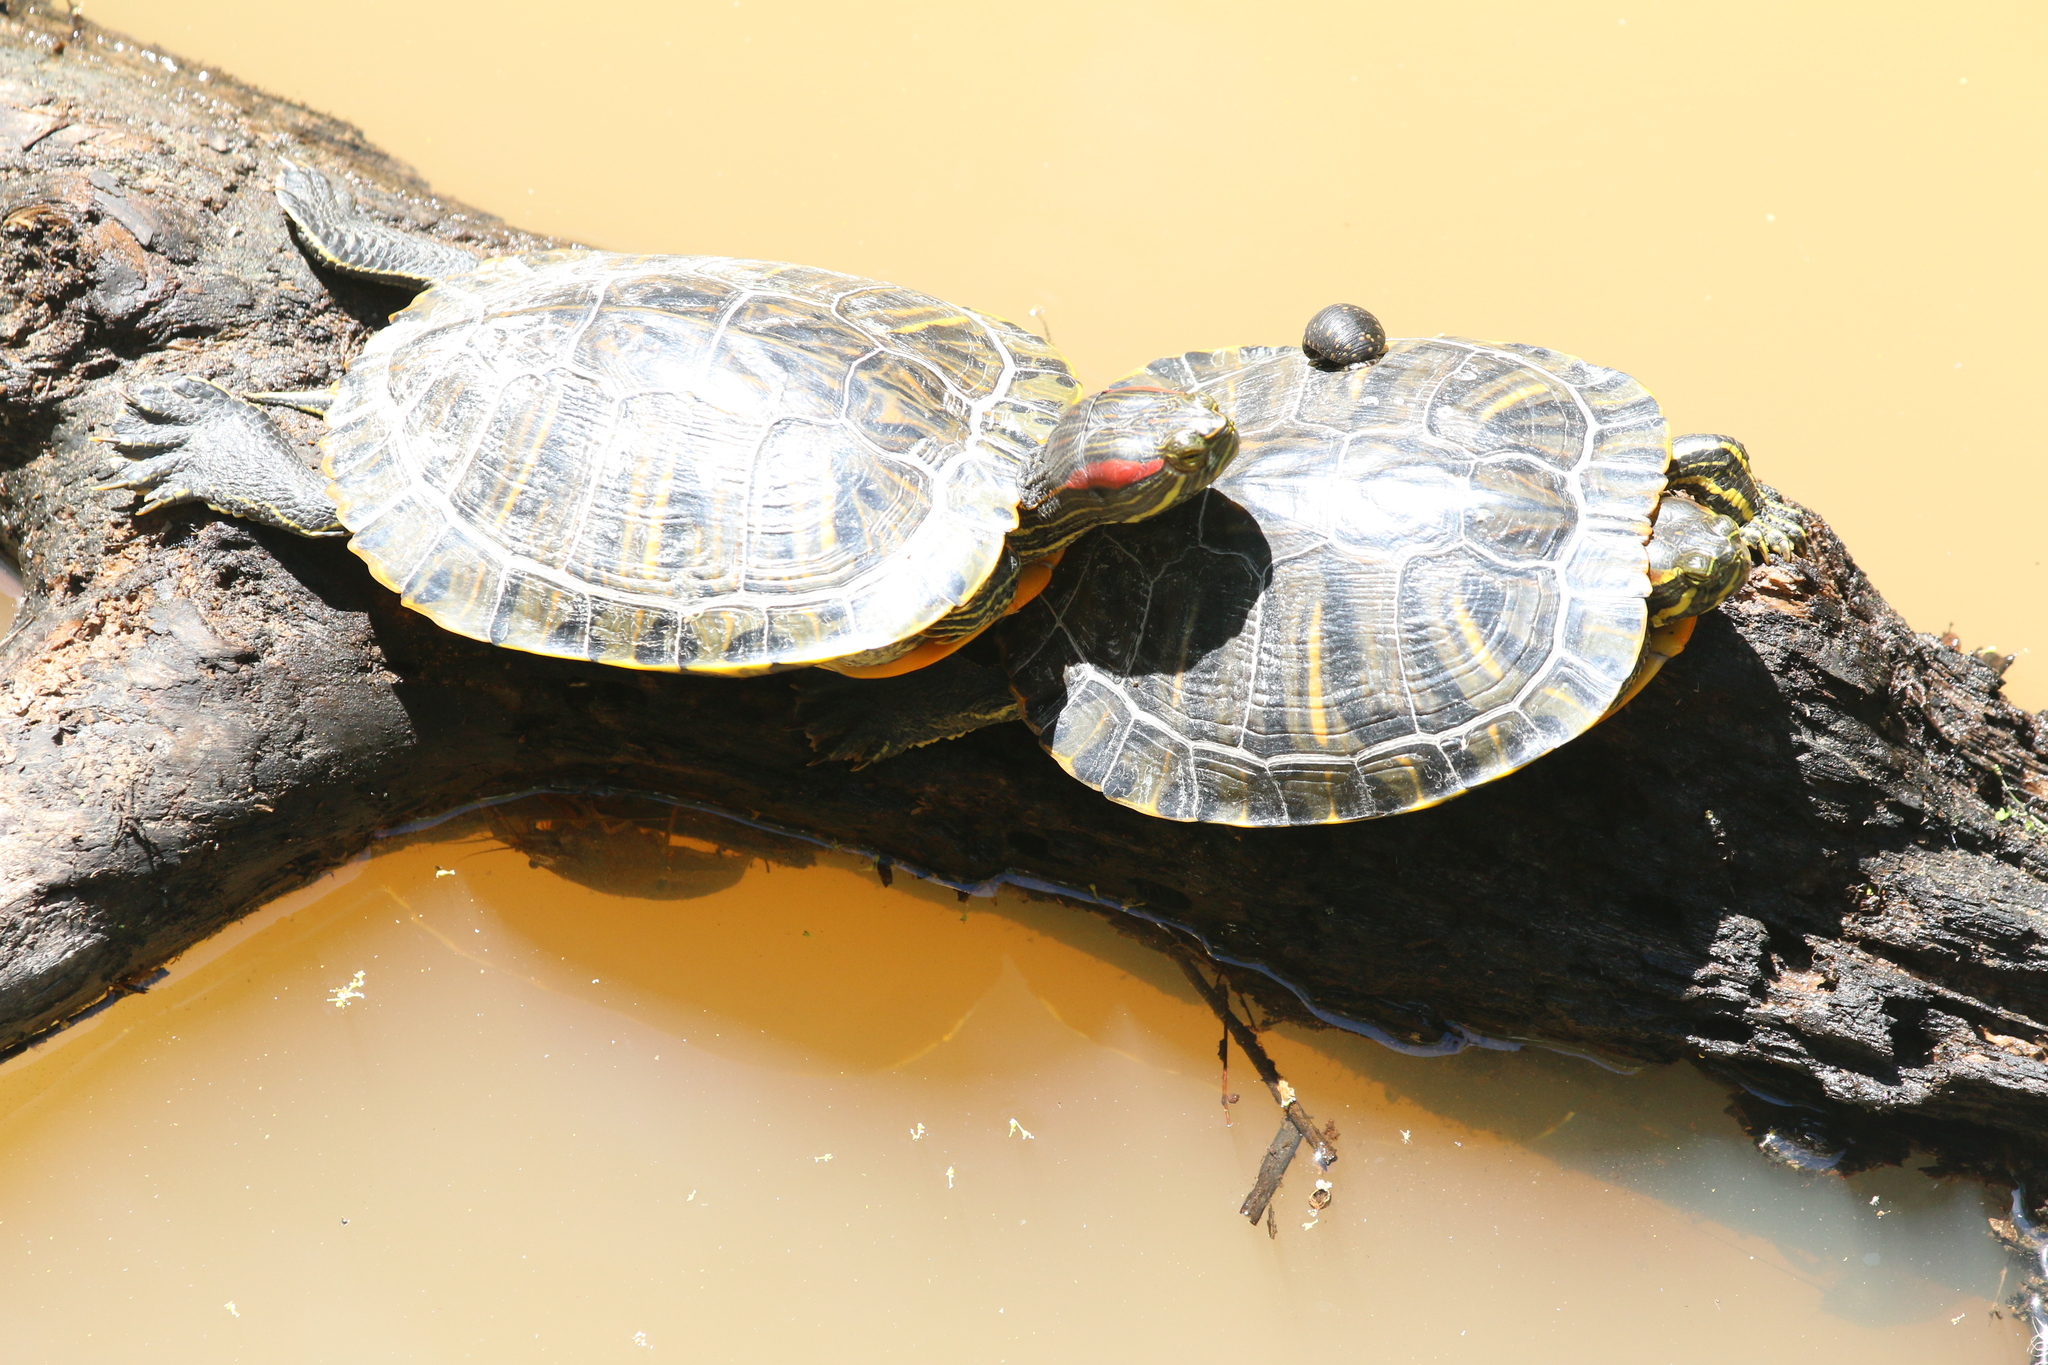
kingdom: Animalia
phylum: Chordata
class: Testudines
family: Emydidae
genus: Trachemys
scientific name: Trachemys scripta
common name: Slider
